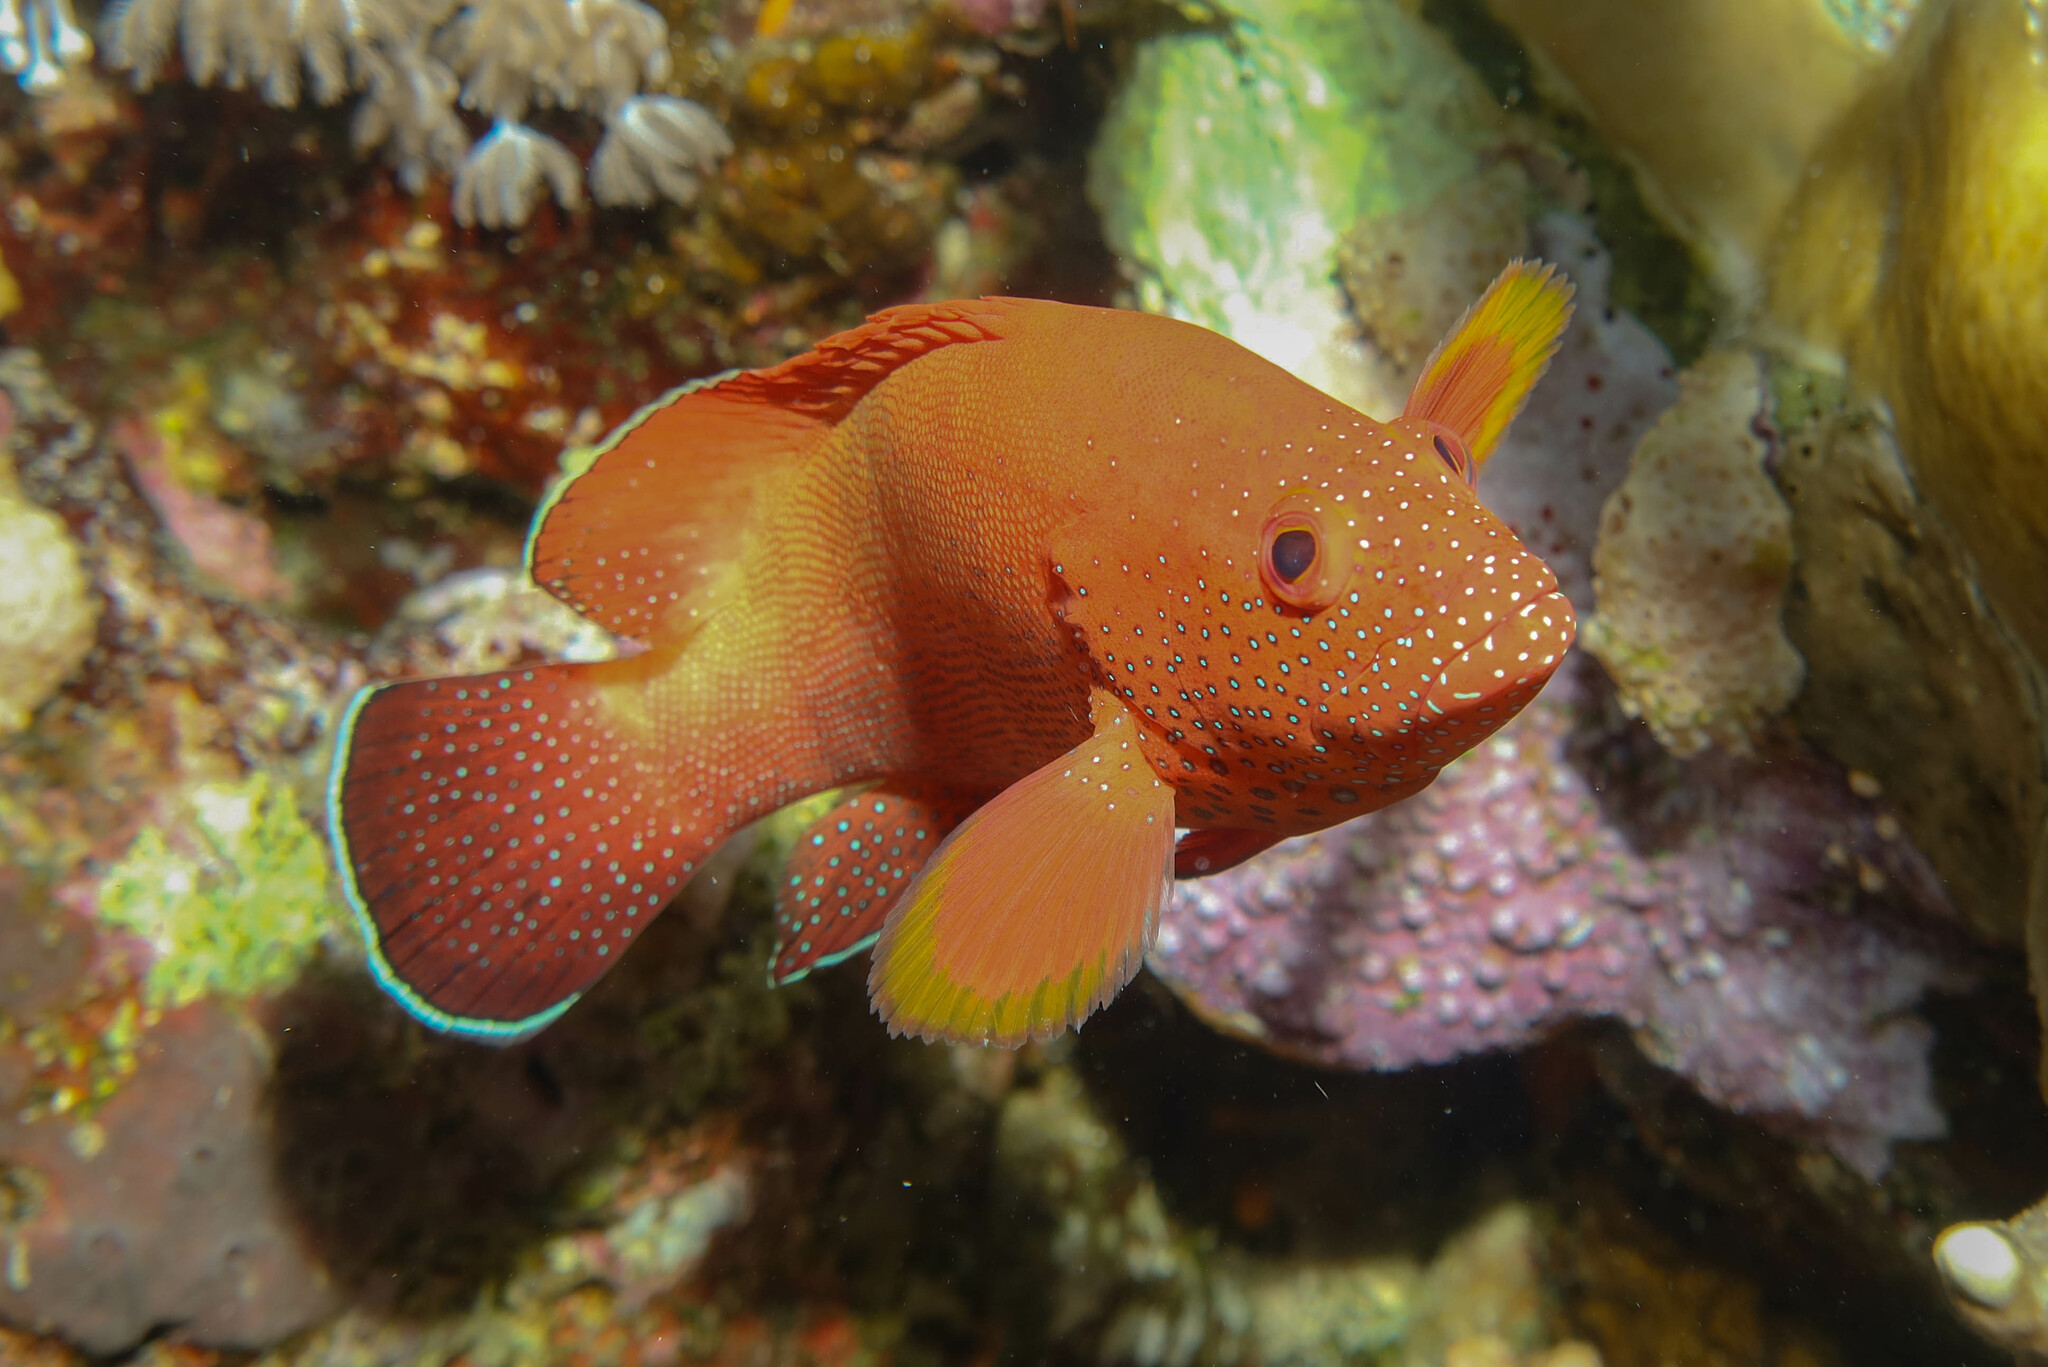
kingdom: Animalia
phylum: Chordata
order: Perciformes
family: Serranidae
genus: Cephalopholis
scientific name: Cephalopholis hemistiktos
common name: Halfspotted hind
